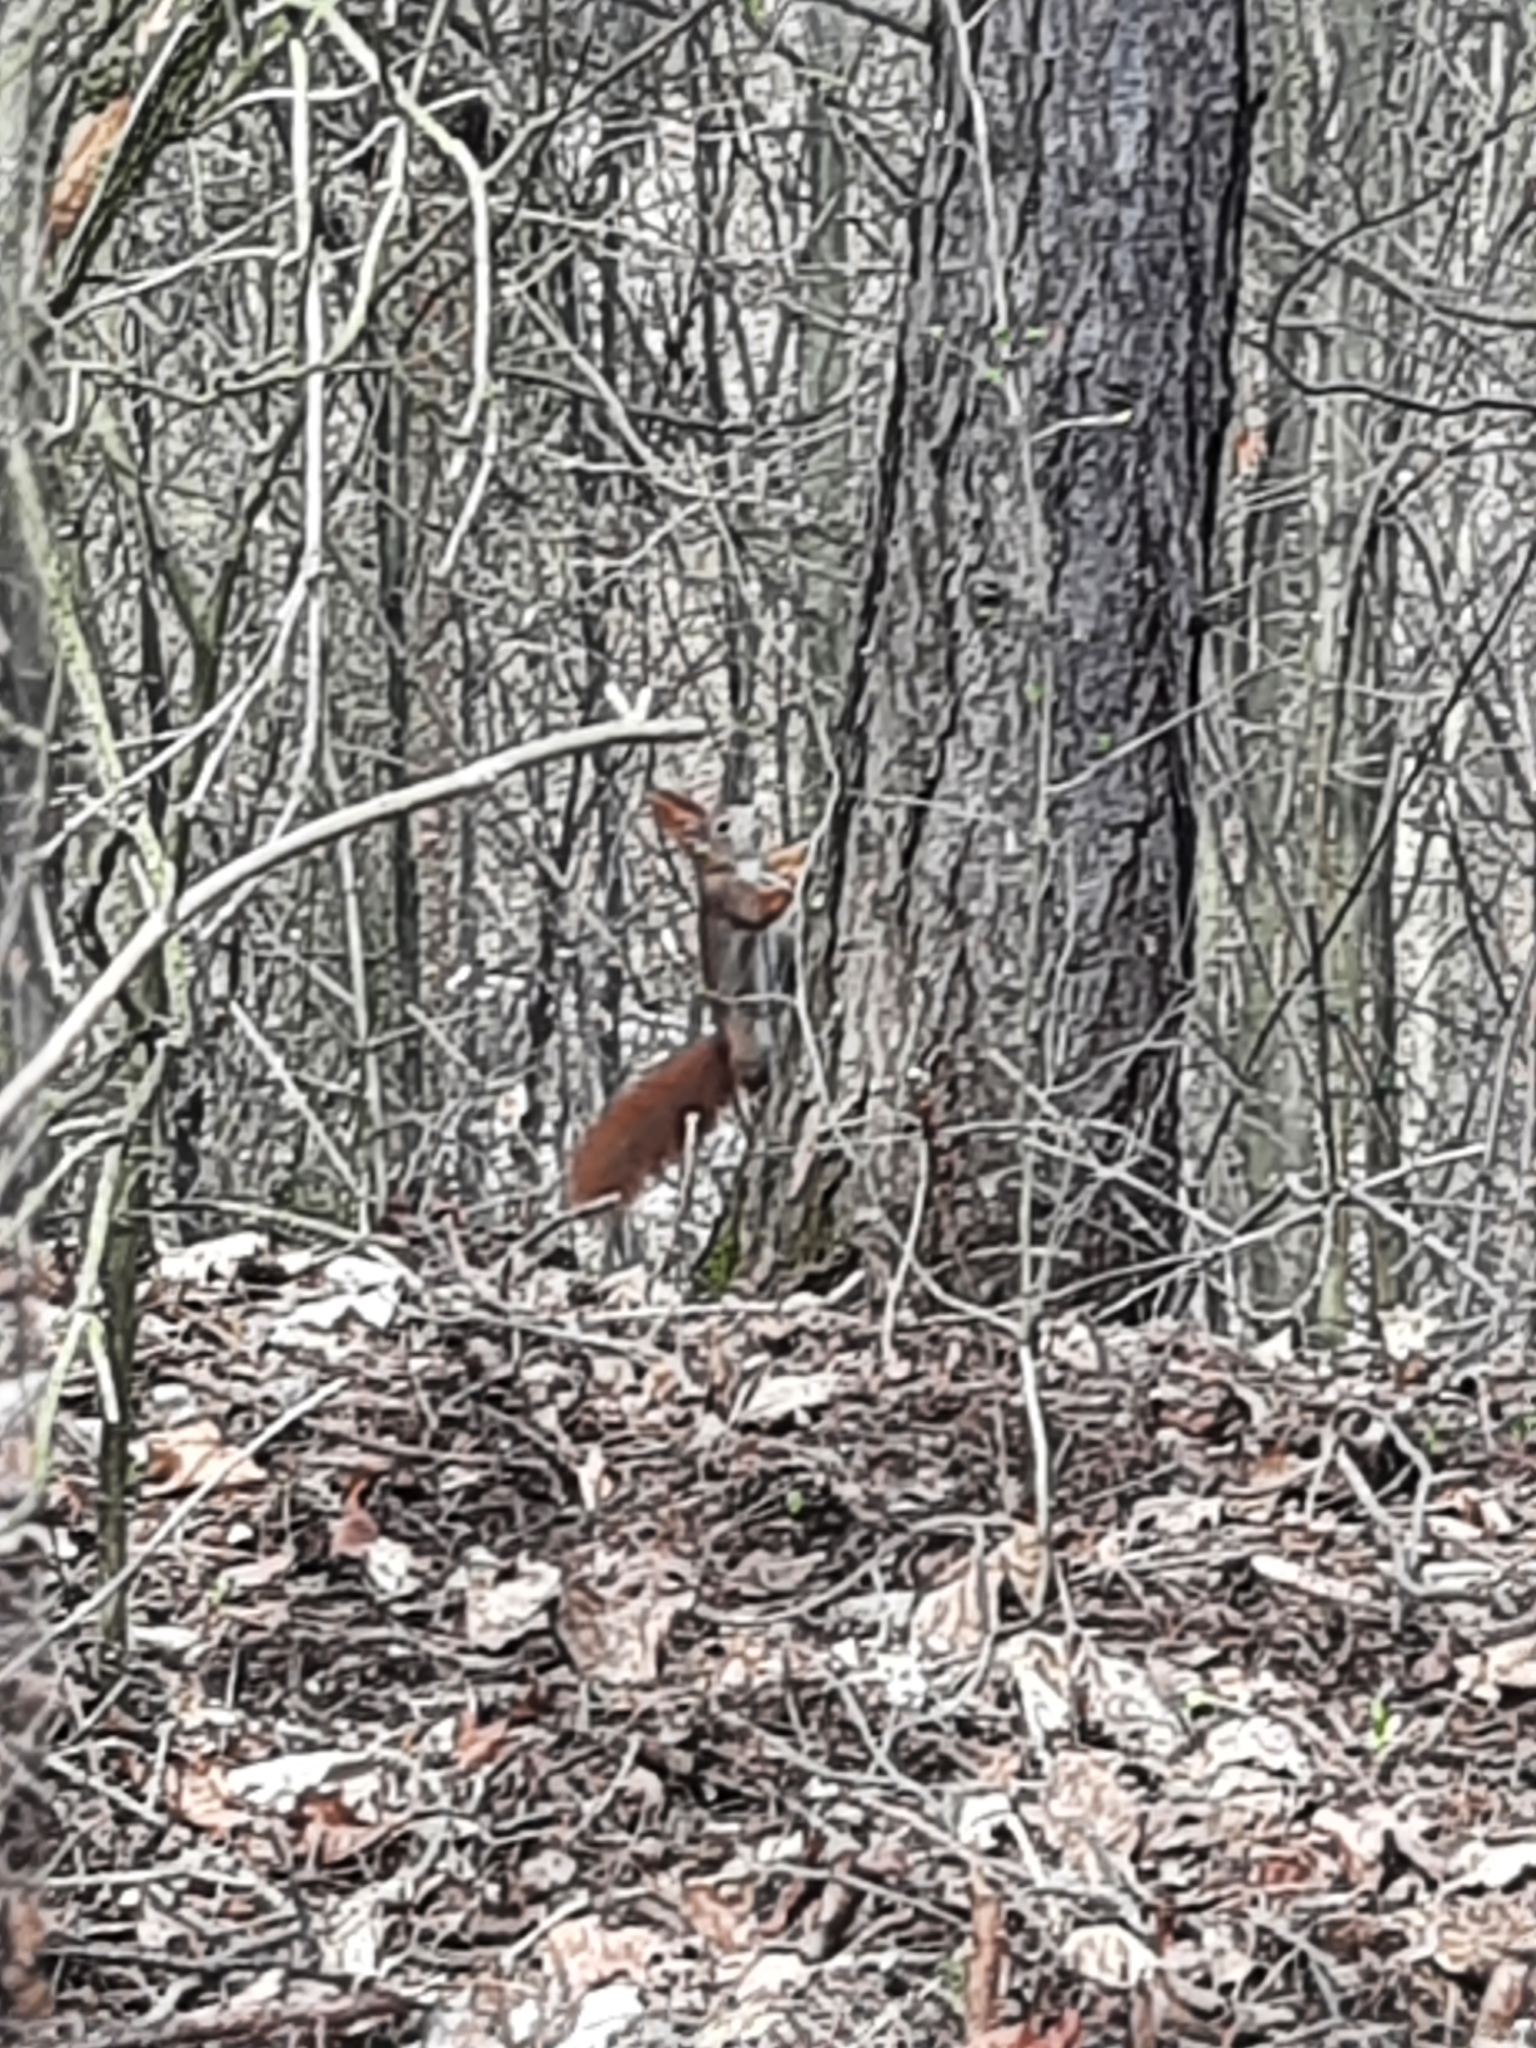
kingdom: Animalia
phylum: Chordata
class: Mammalia
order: Rodentia
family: Sciuridae
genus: Sciurus
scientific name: Sciurus vulgaris
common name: Eurasian red squirrel
